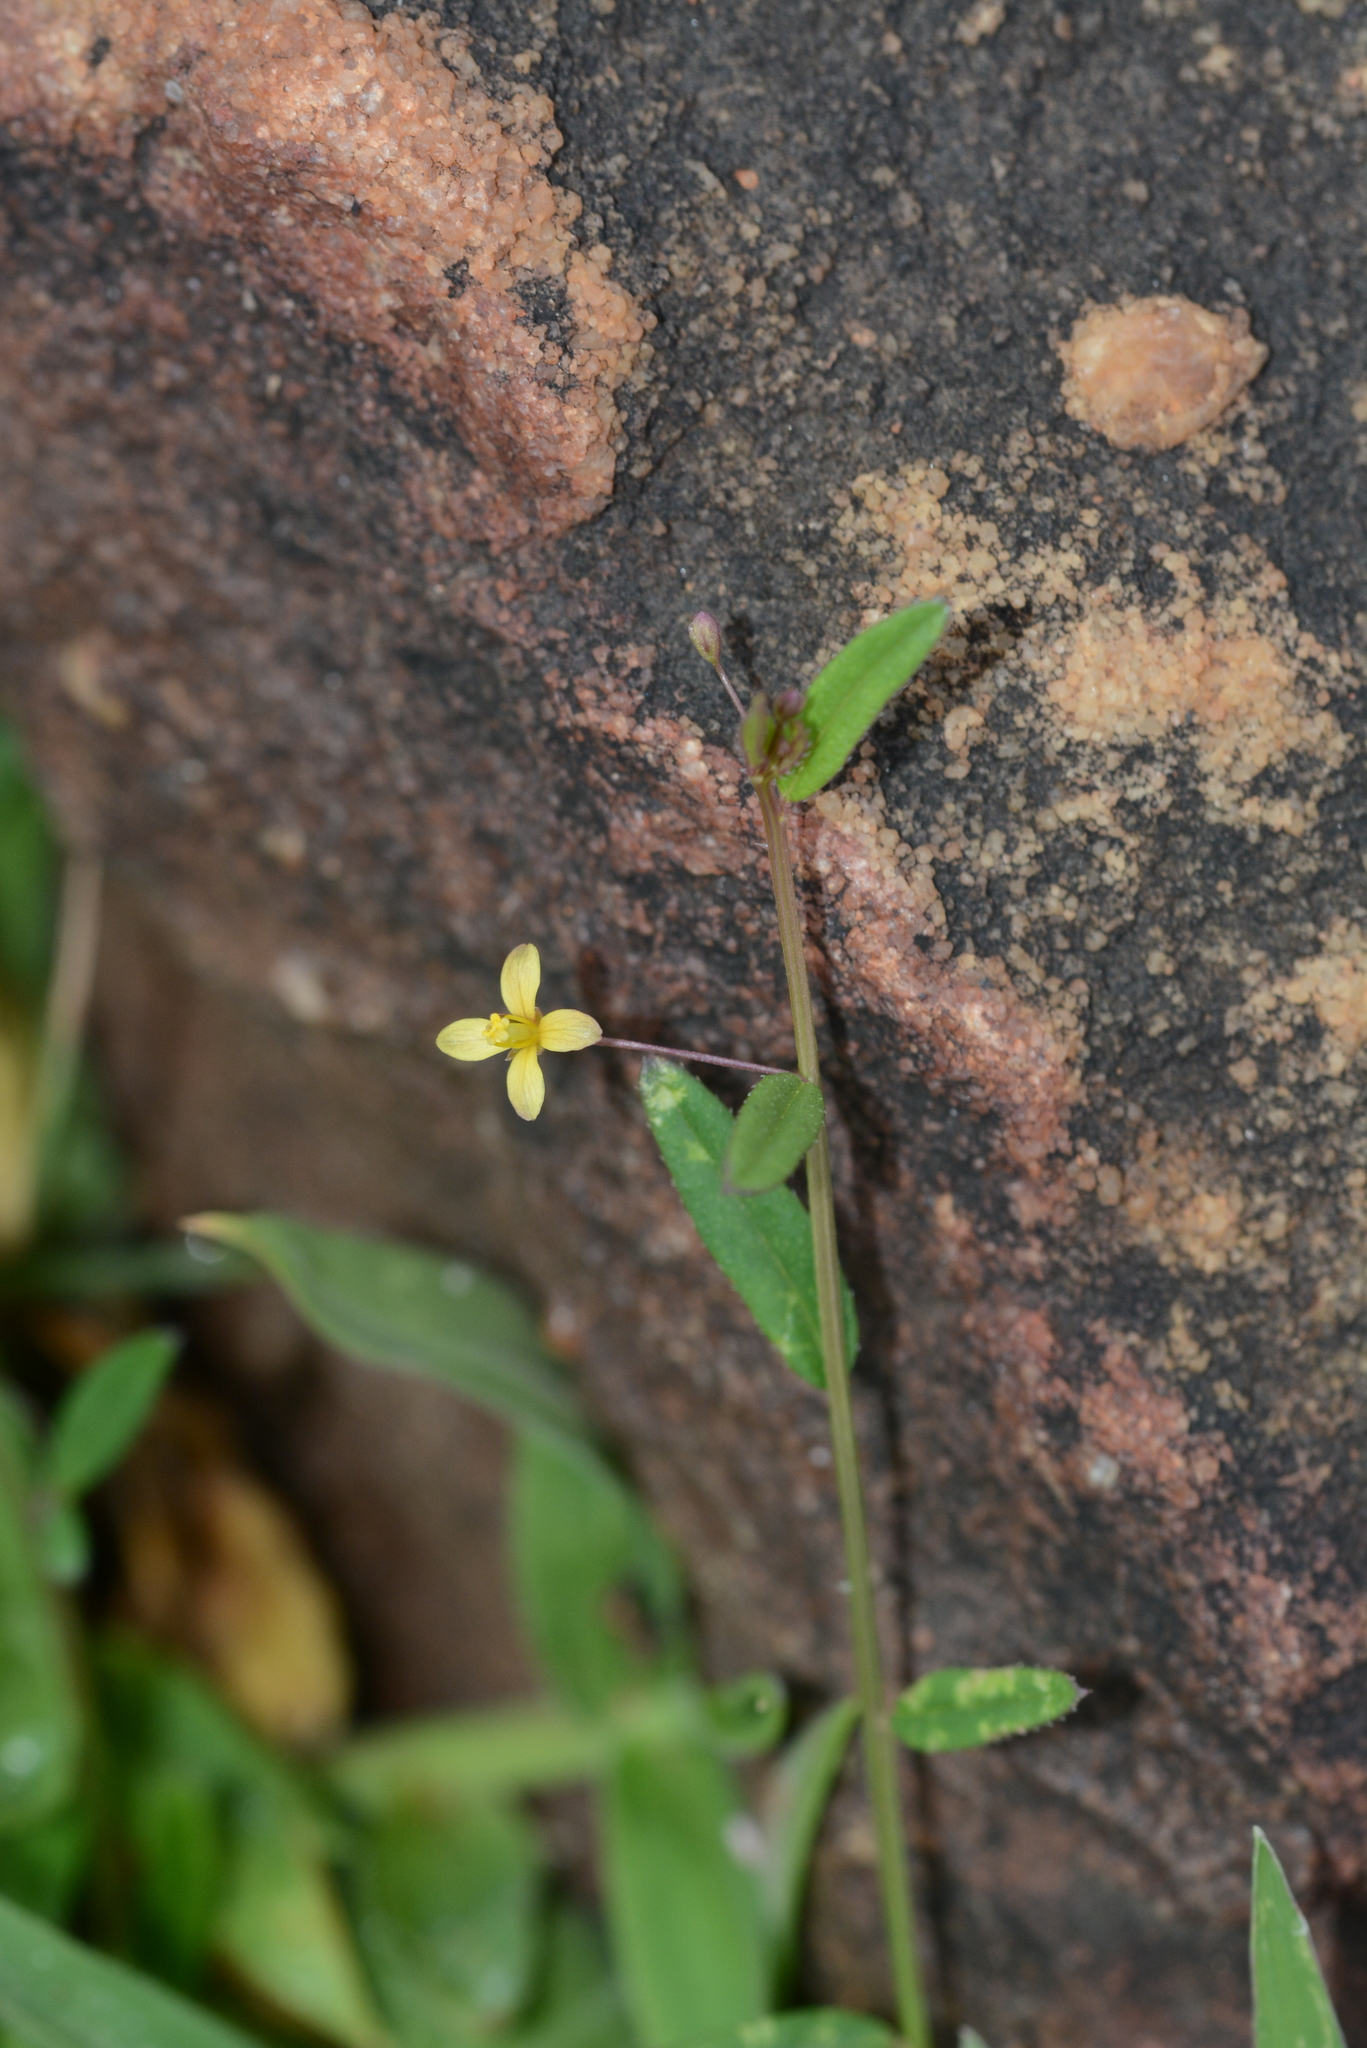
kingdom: Plantae
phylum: Tracheophyta
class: Magnoliopsida
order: Brassicales
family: Cleomaceae
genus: Corynandra
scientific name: Corynandra aspera
